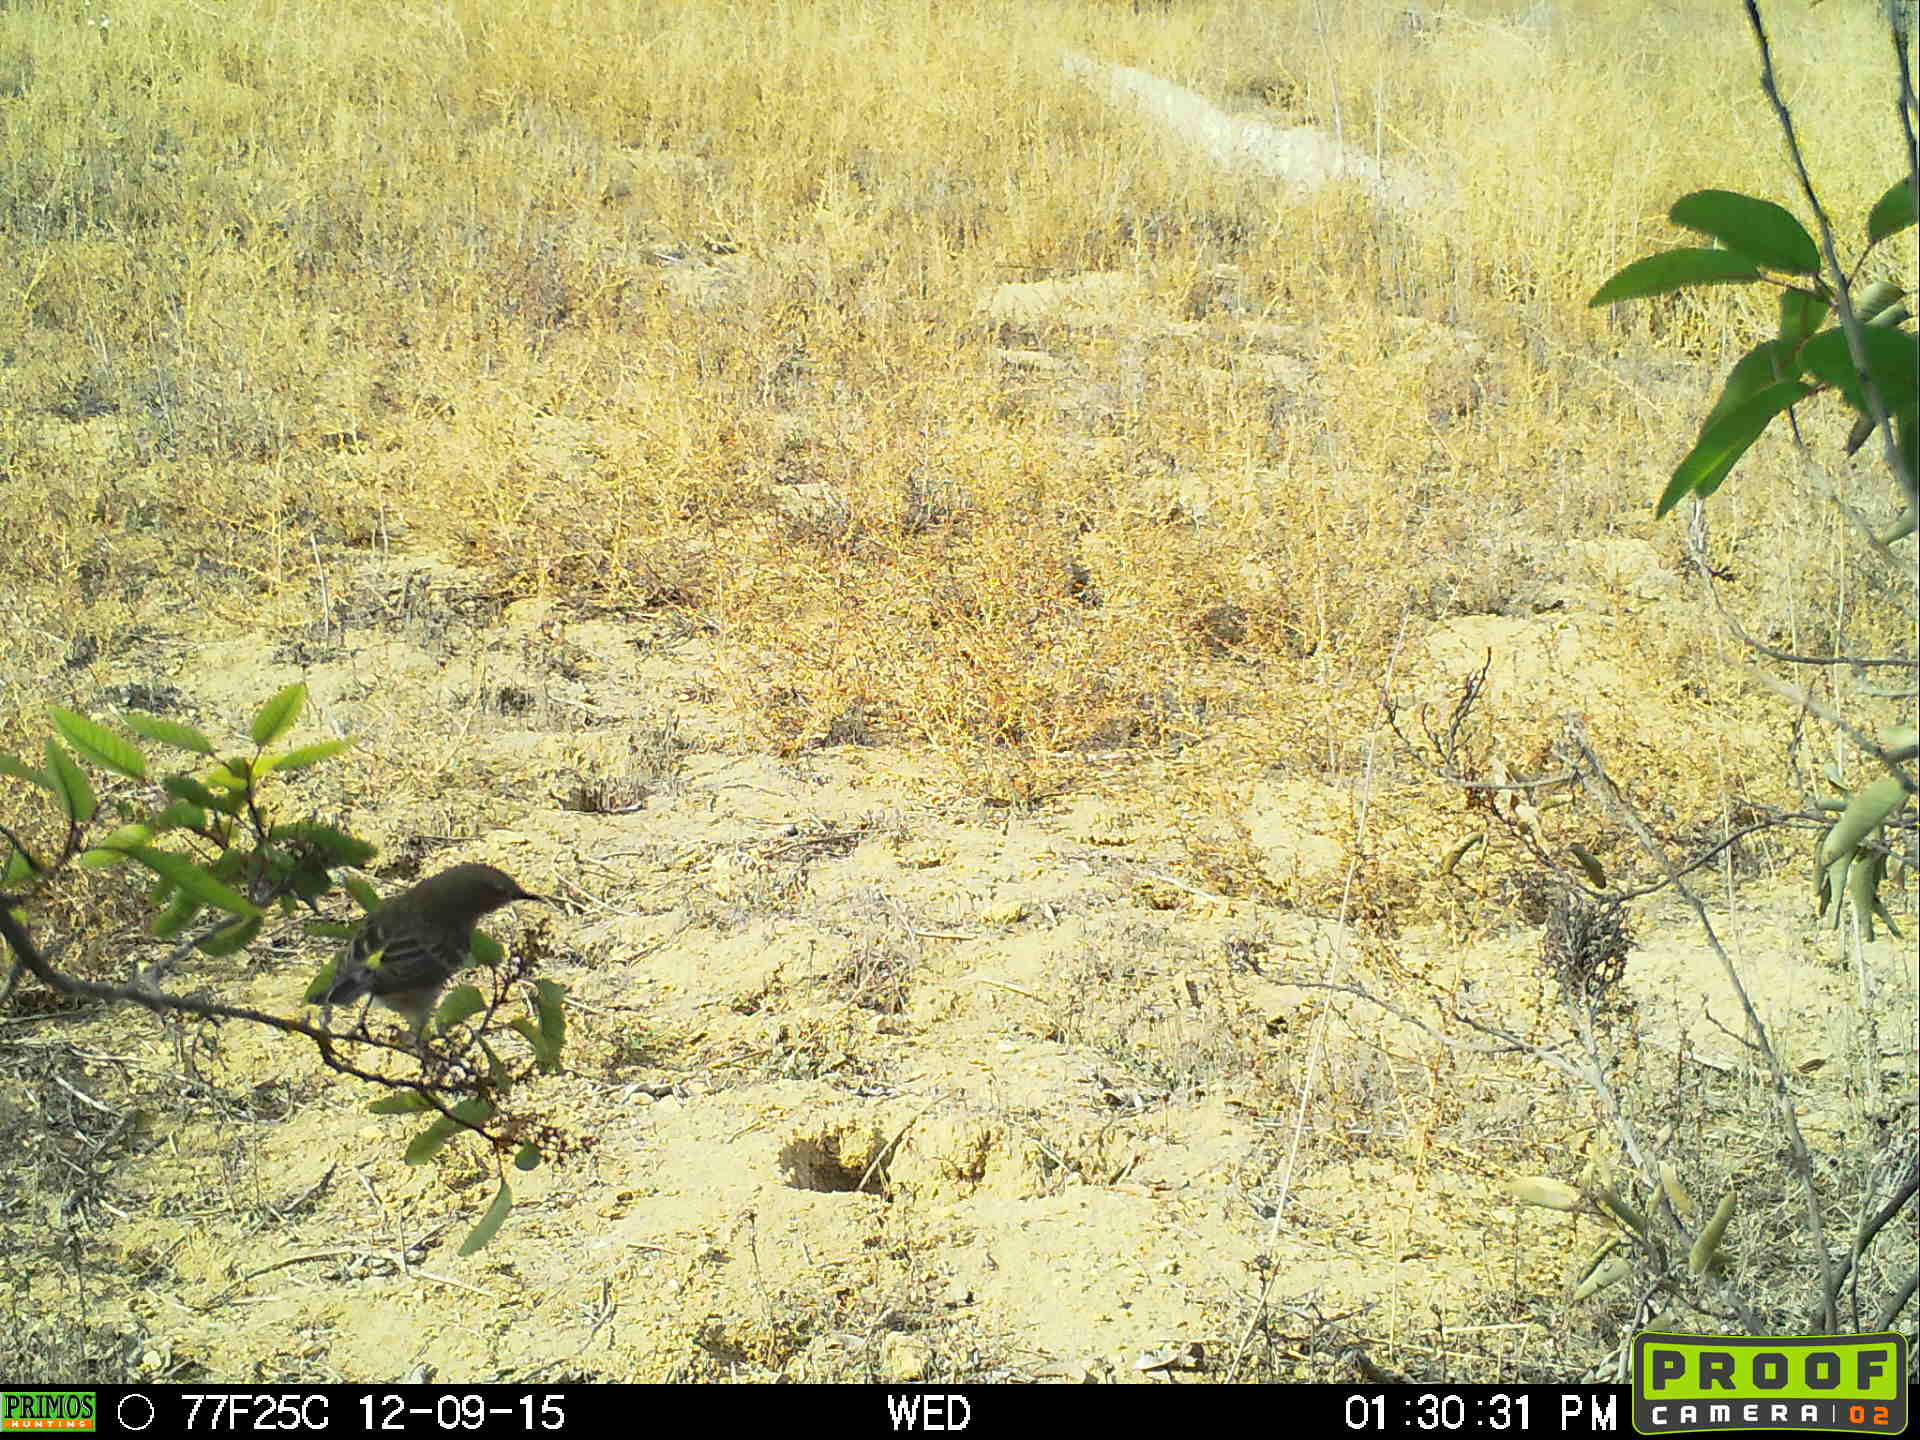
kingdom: Animalia
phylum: Chordata
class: Aves
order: Passeriformes
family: Parulidae
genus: Setophaga
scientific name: Setophaga coronata
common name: Myrtle warbler
